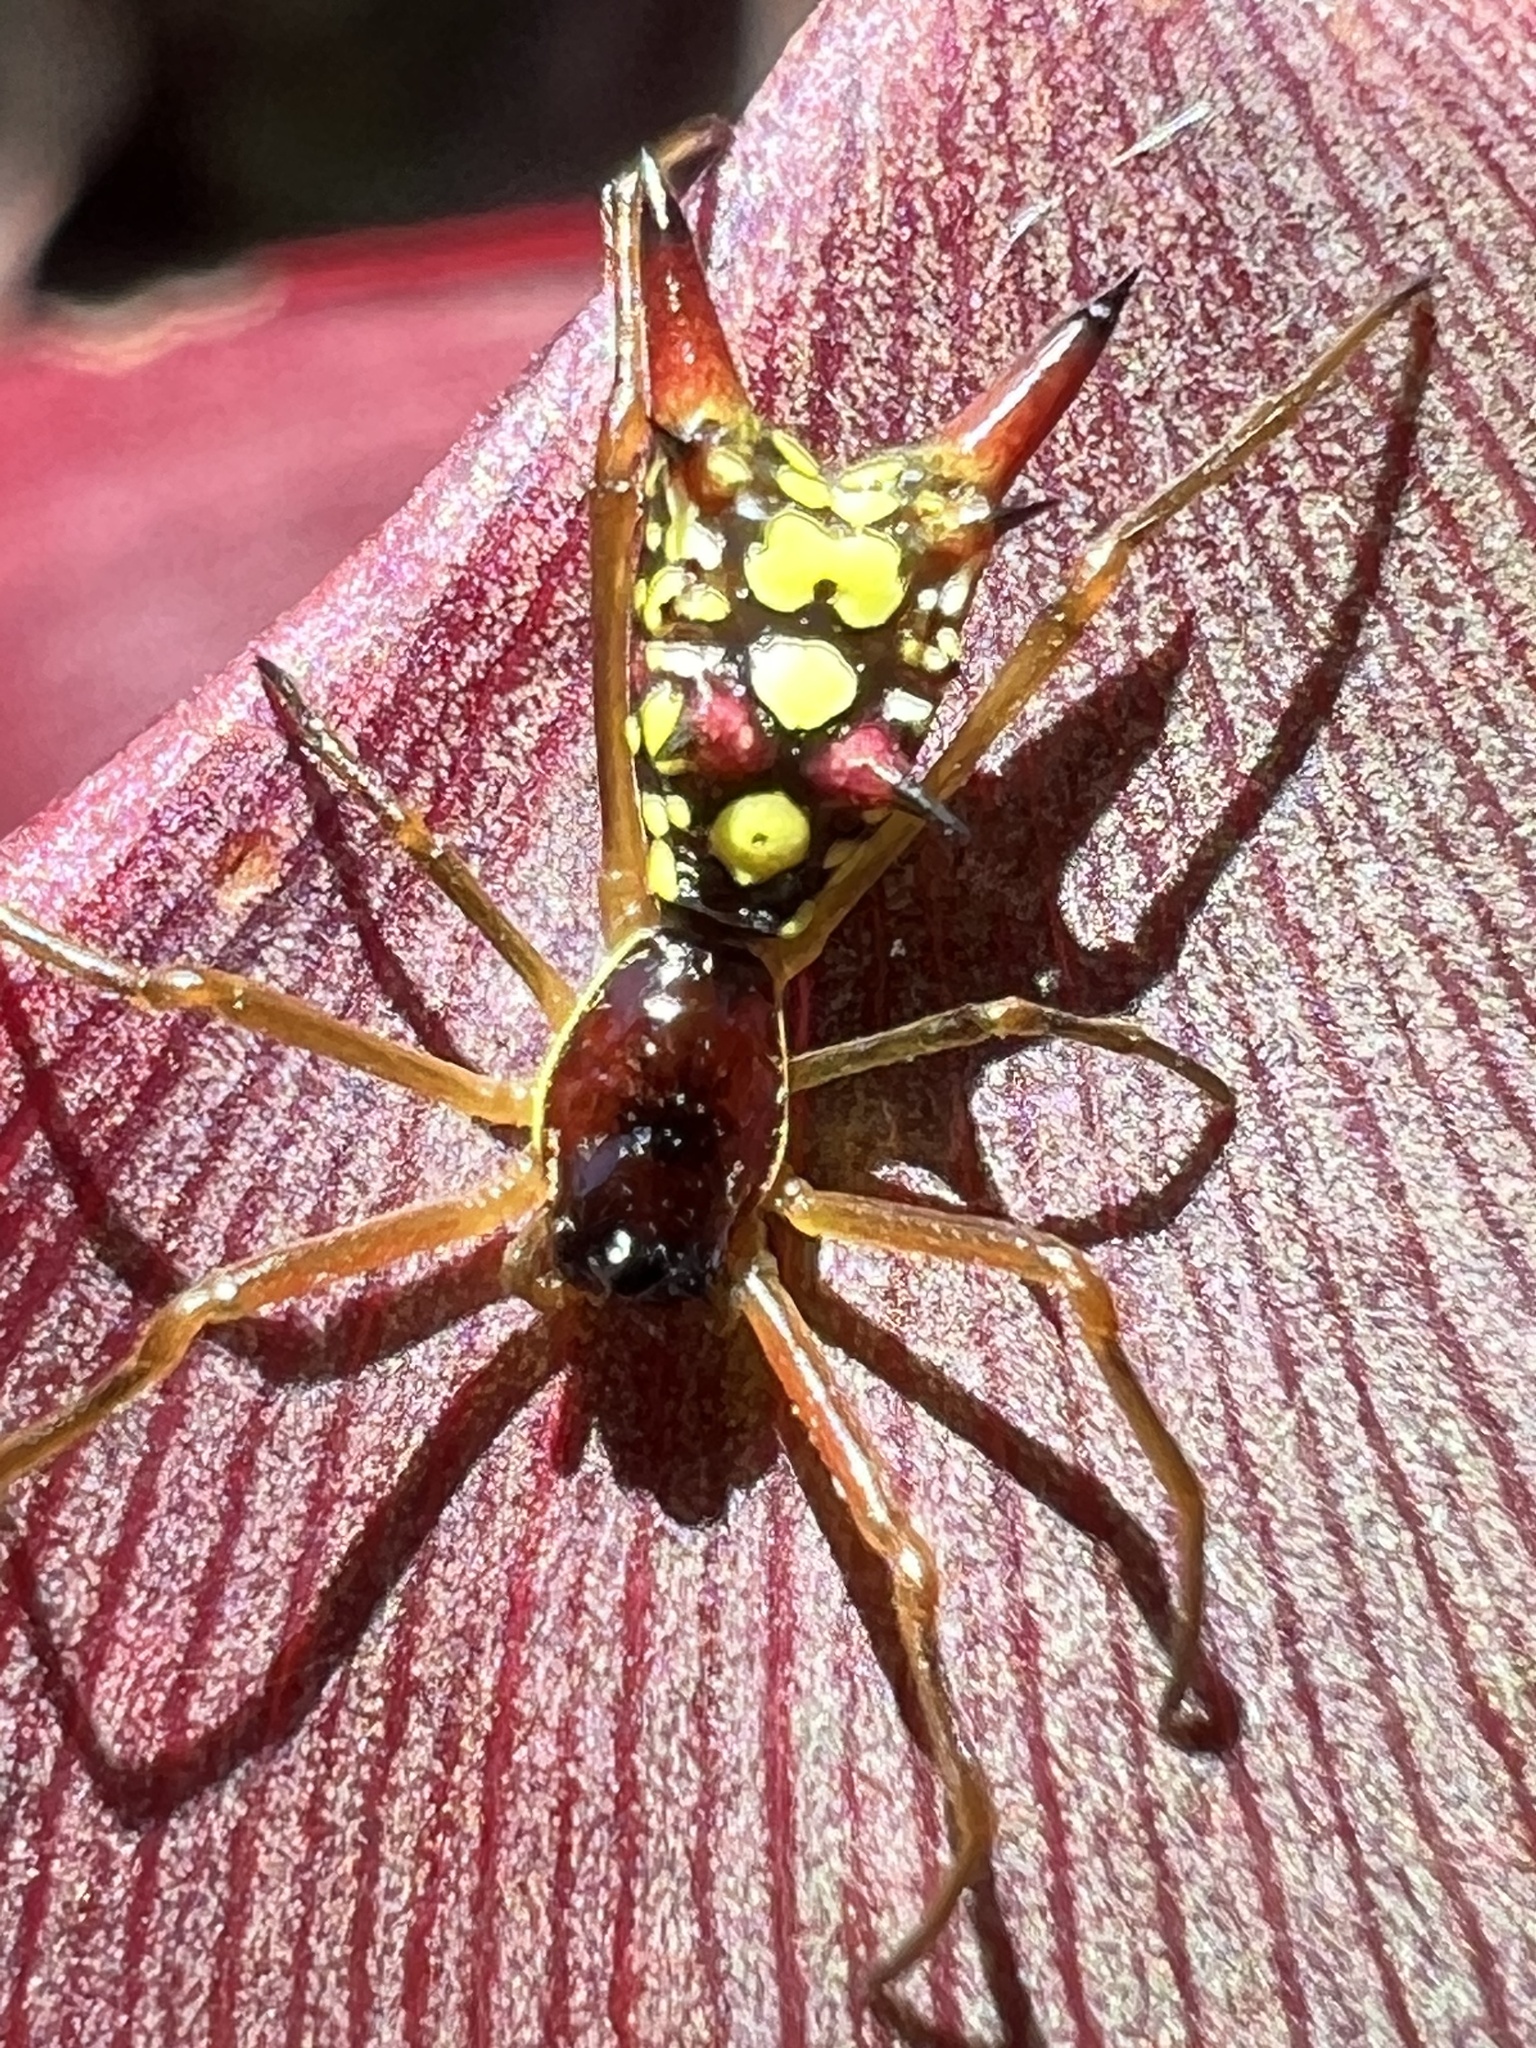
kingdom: Animalia
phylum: Arthropoda
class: Arachnida
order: Araneae
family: Araneidae
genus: Micrathena
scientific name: Micrathena brevipes
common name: Orb weavers
